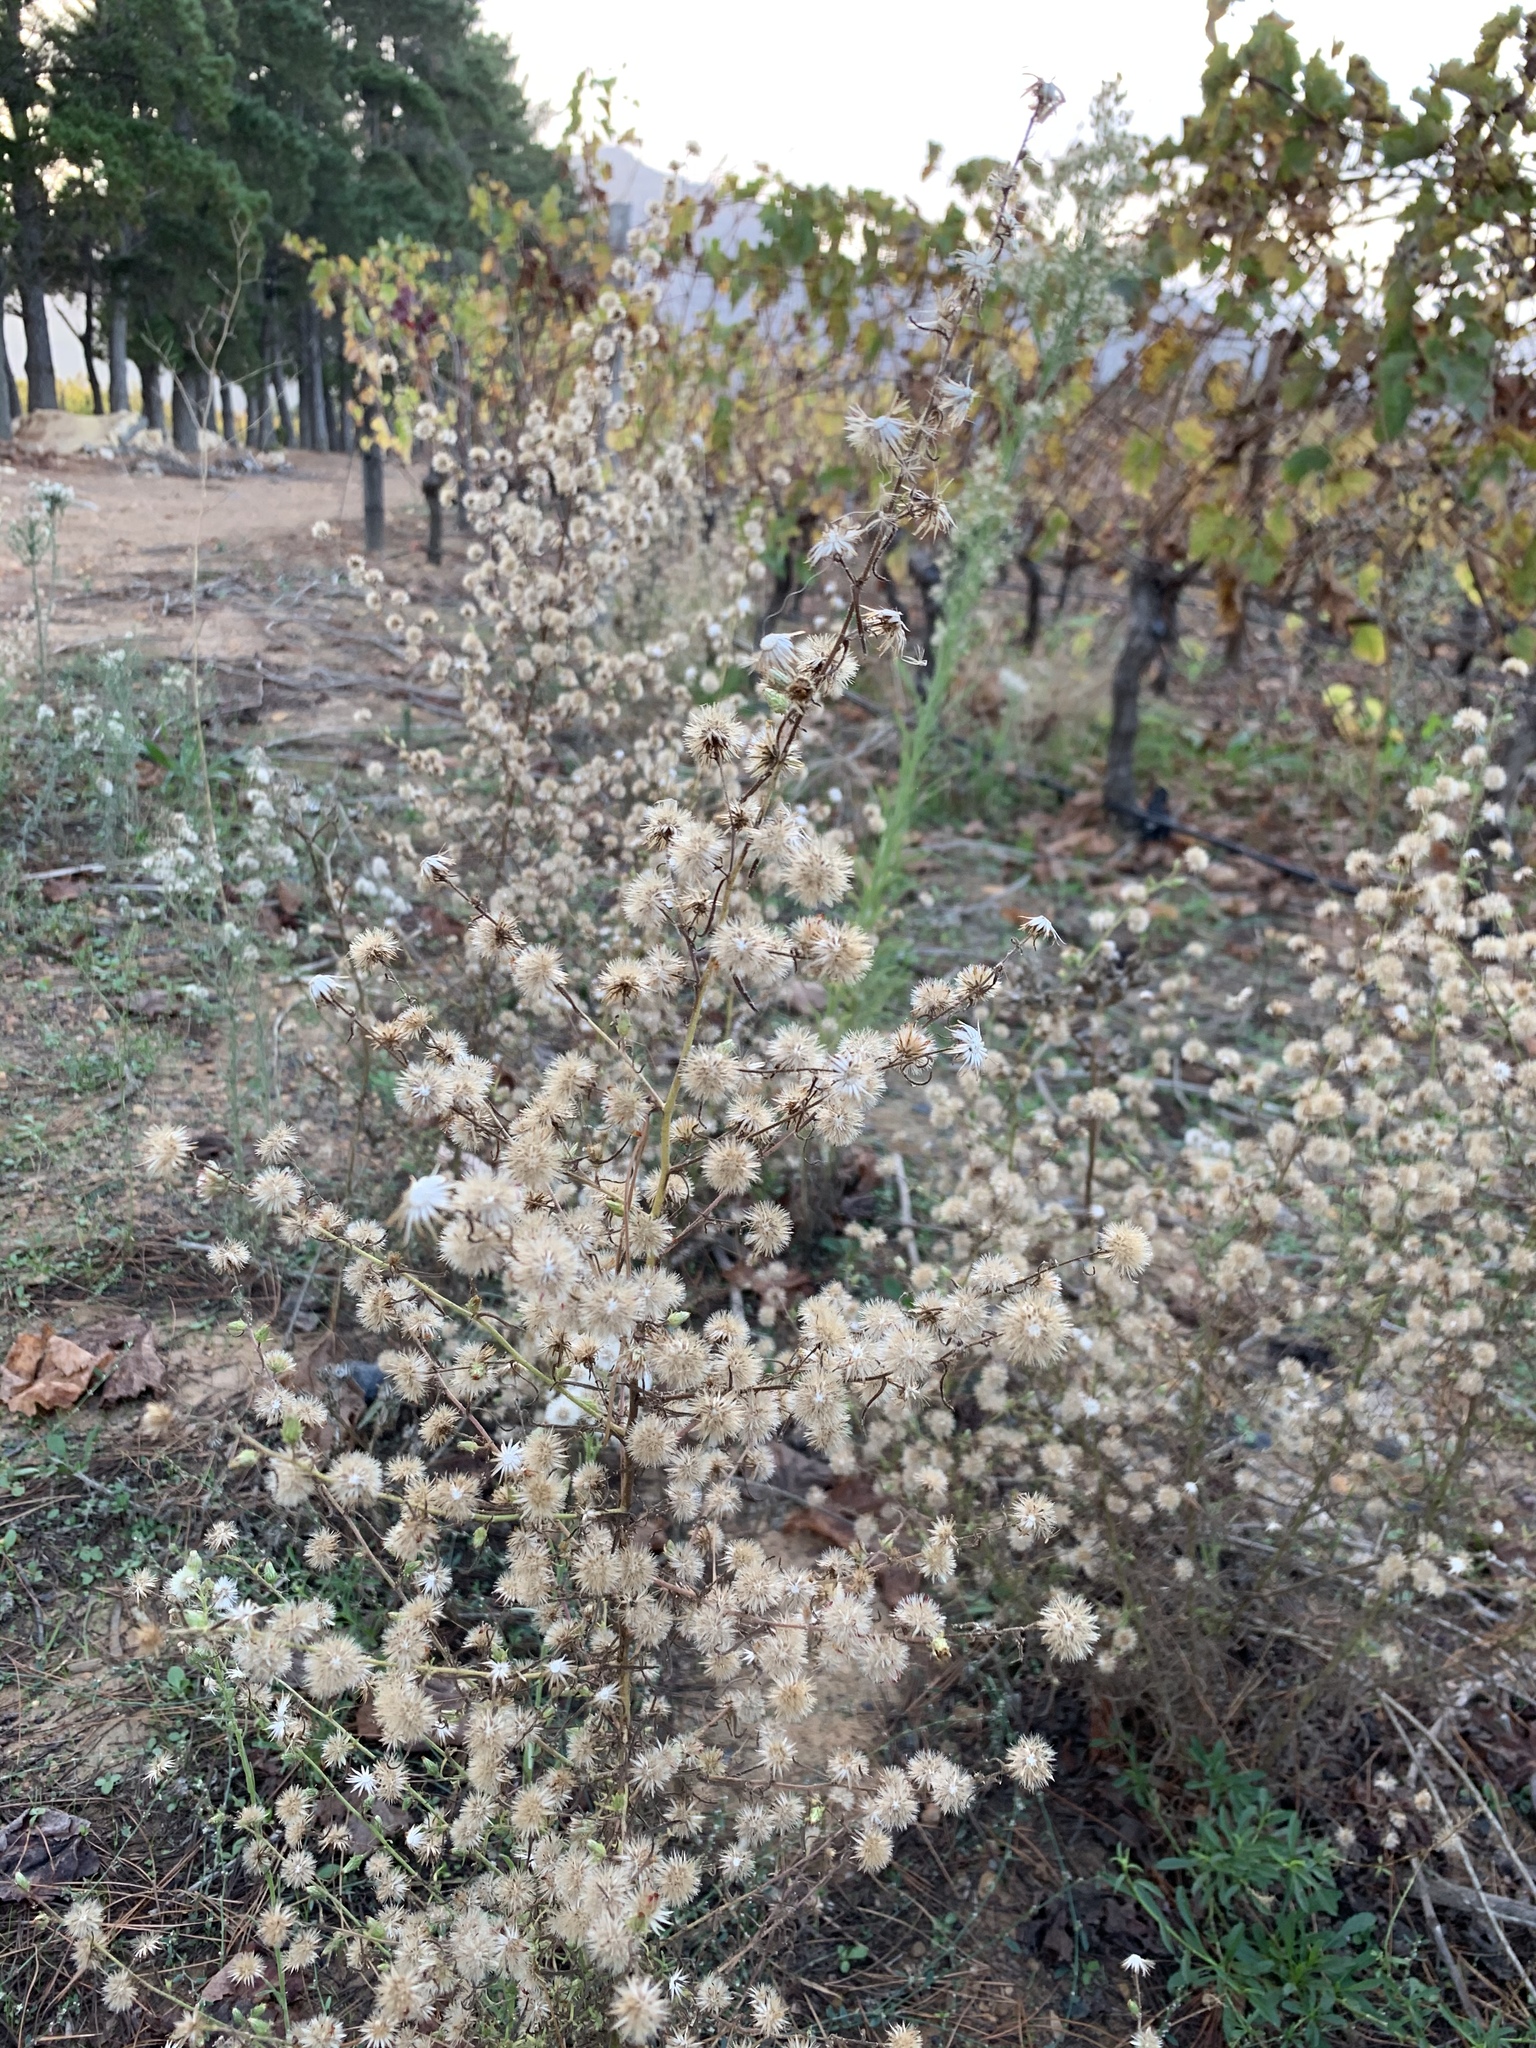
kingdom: Plantae
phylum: Tracheophyta
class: Magnoliopsida
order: Asterales
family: Asteraceae
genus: Erigeron
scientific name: Erigeron bonariensis
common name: Argentine fleabane
